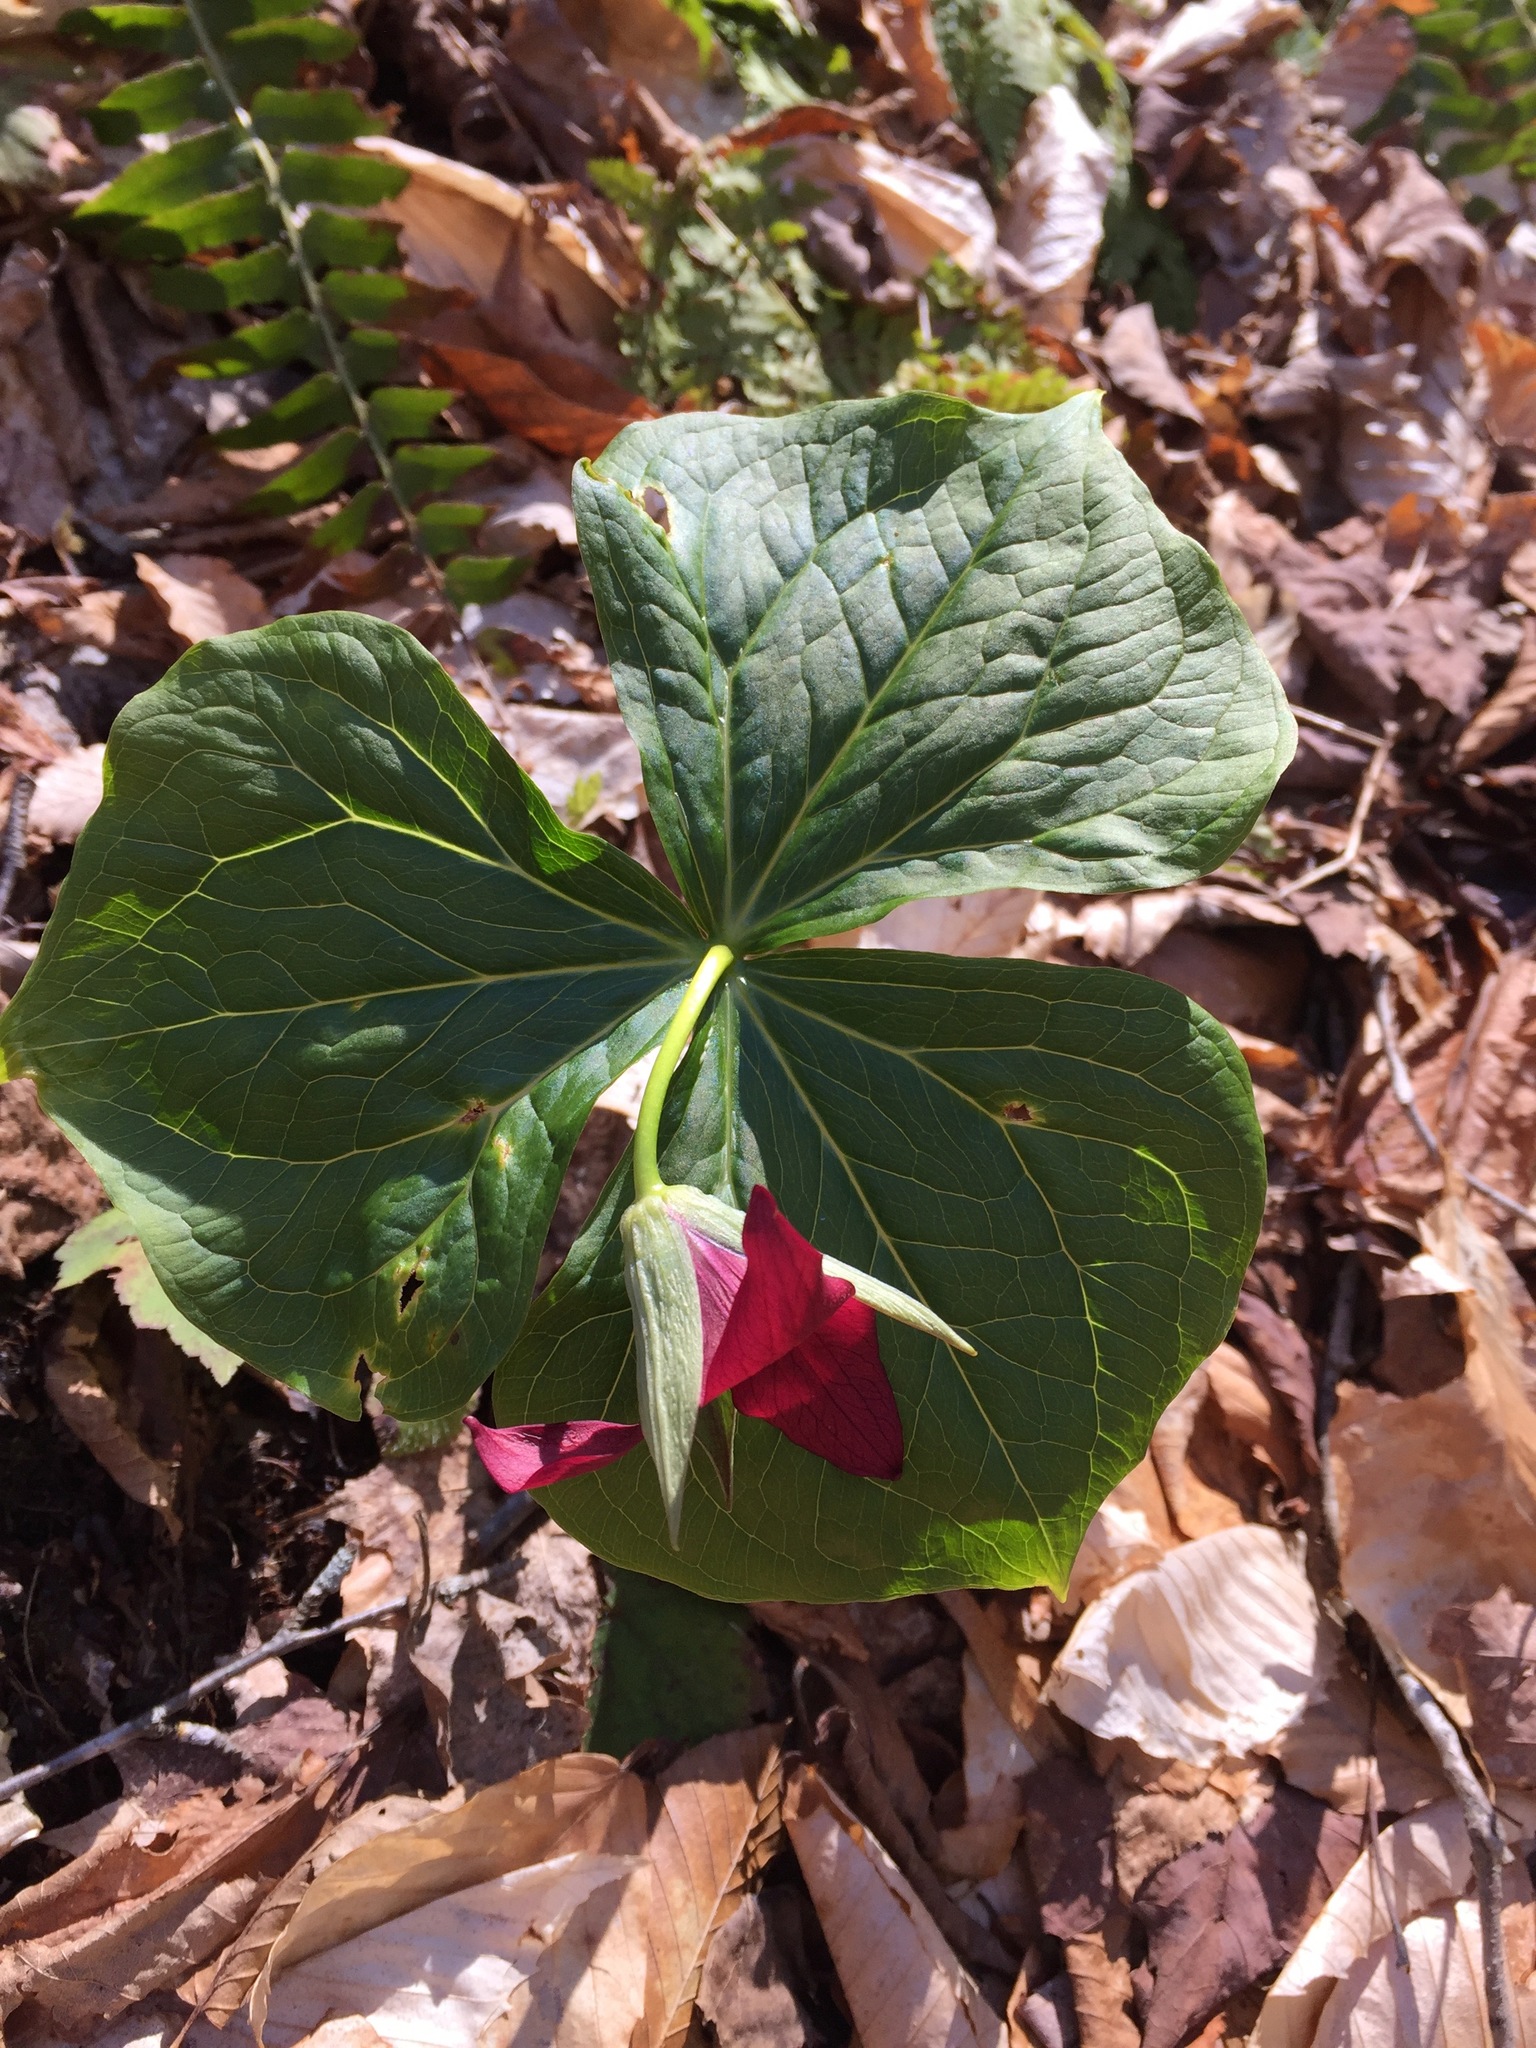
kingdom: Plantae
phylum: Tracheophyta
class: Liliopsida
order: Liliales
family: Melanthiaceae
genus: Trillium
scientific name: Trillium erectum
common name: Purple trillium
